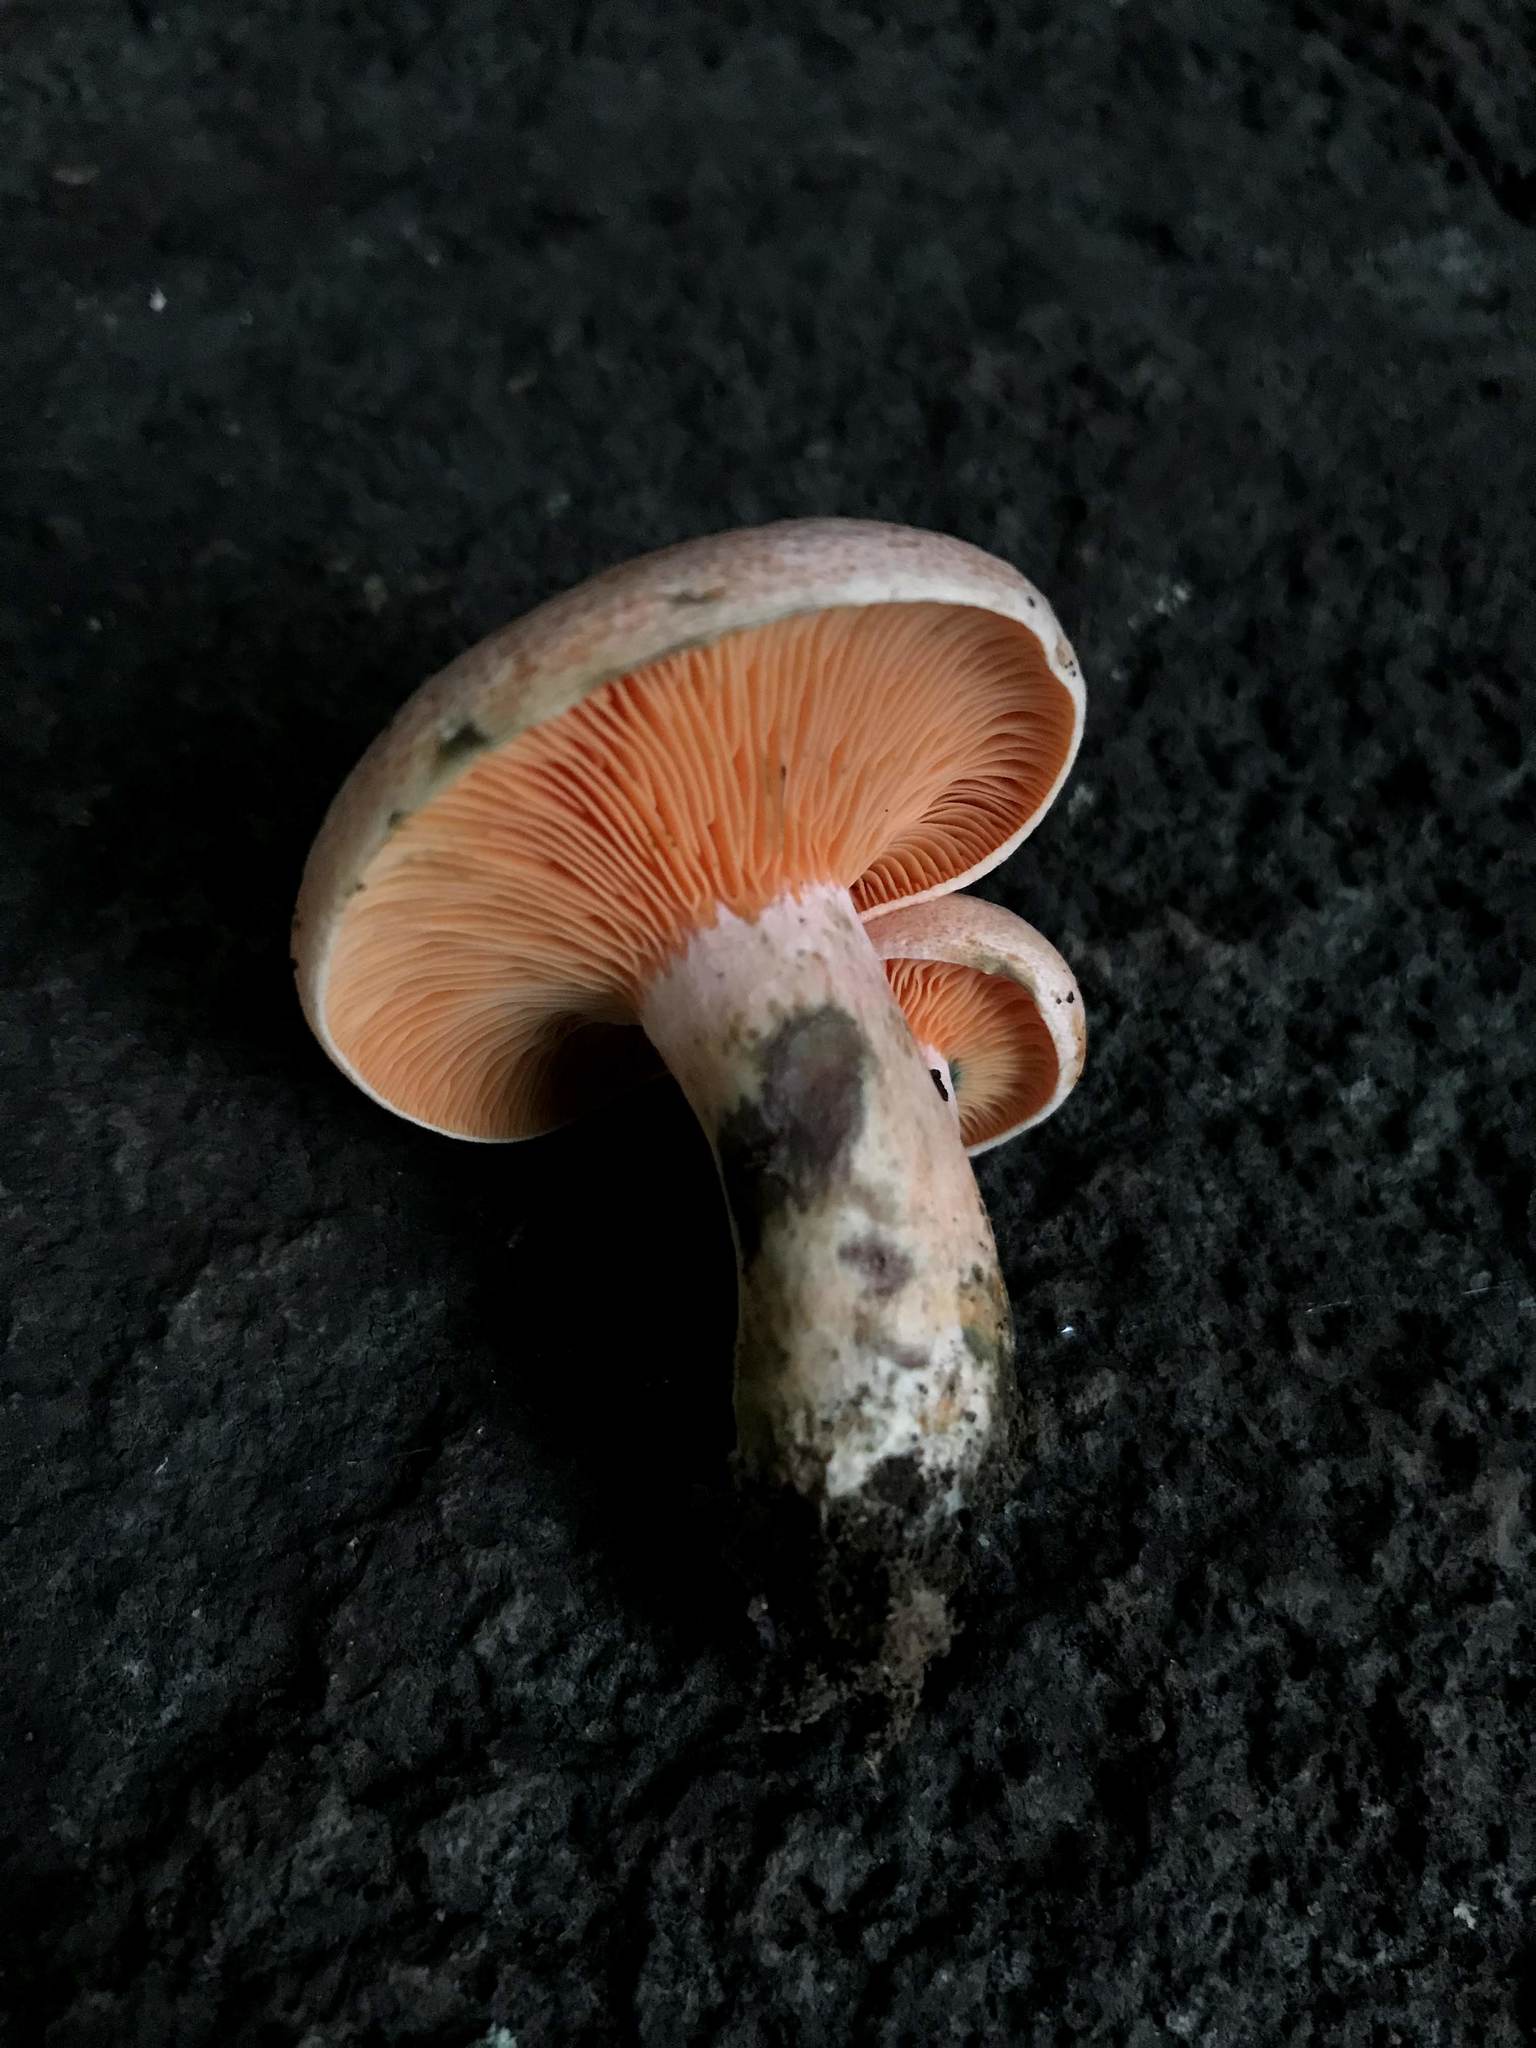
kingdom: Fungi
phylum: Basidiomycota
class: Agaricomycetes
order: Russulales
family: Russulaceae
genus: Lactarius
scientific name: Lactarius hatsudake
